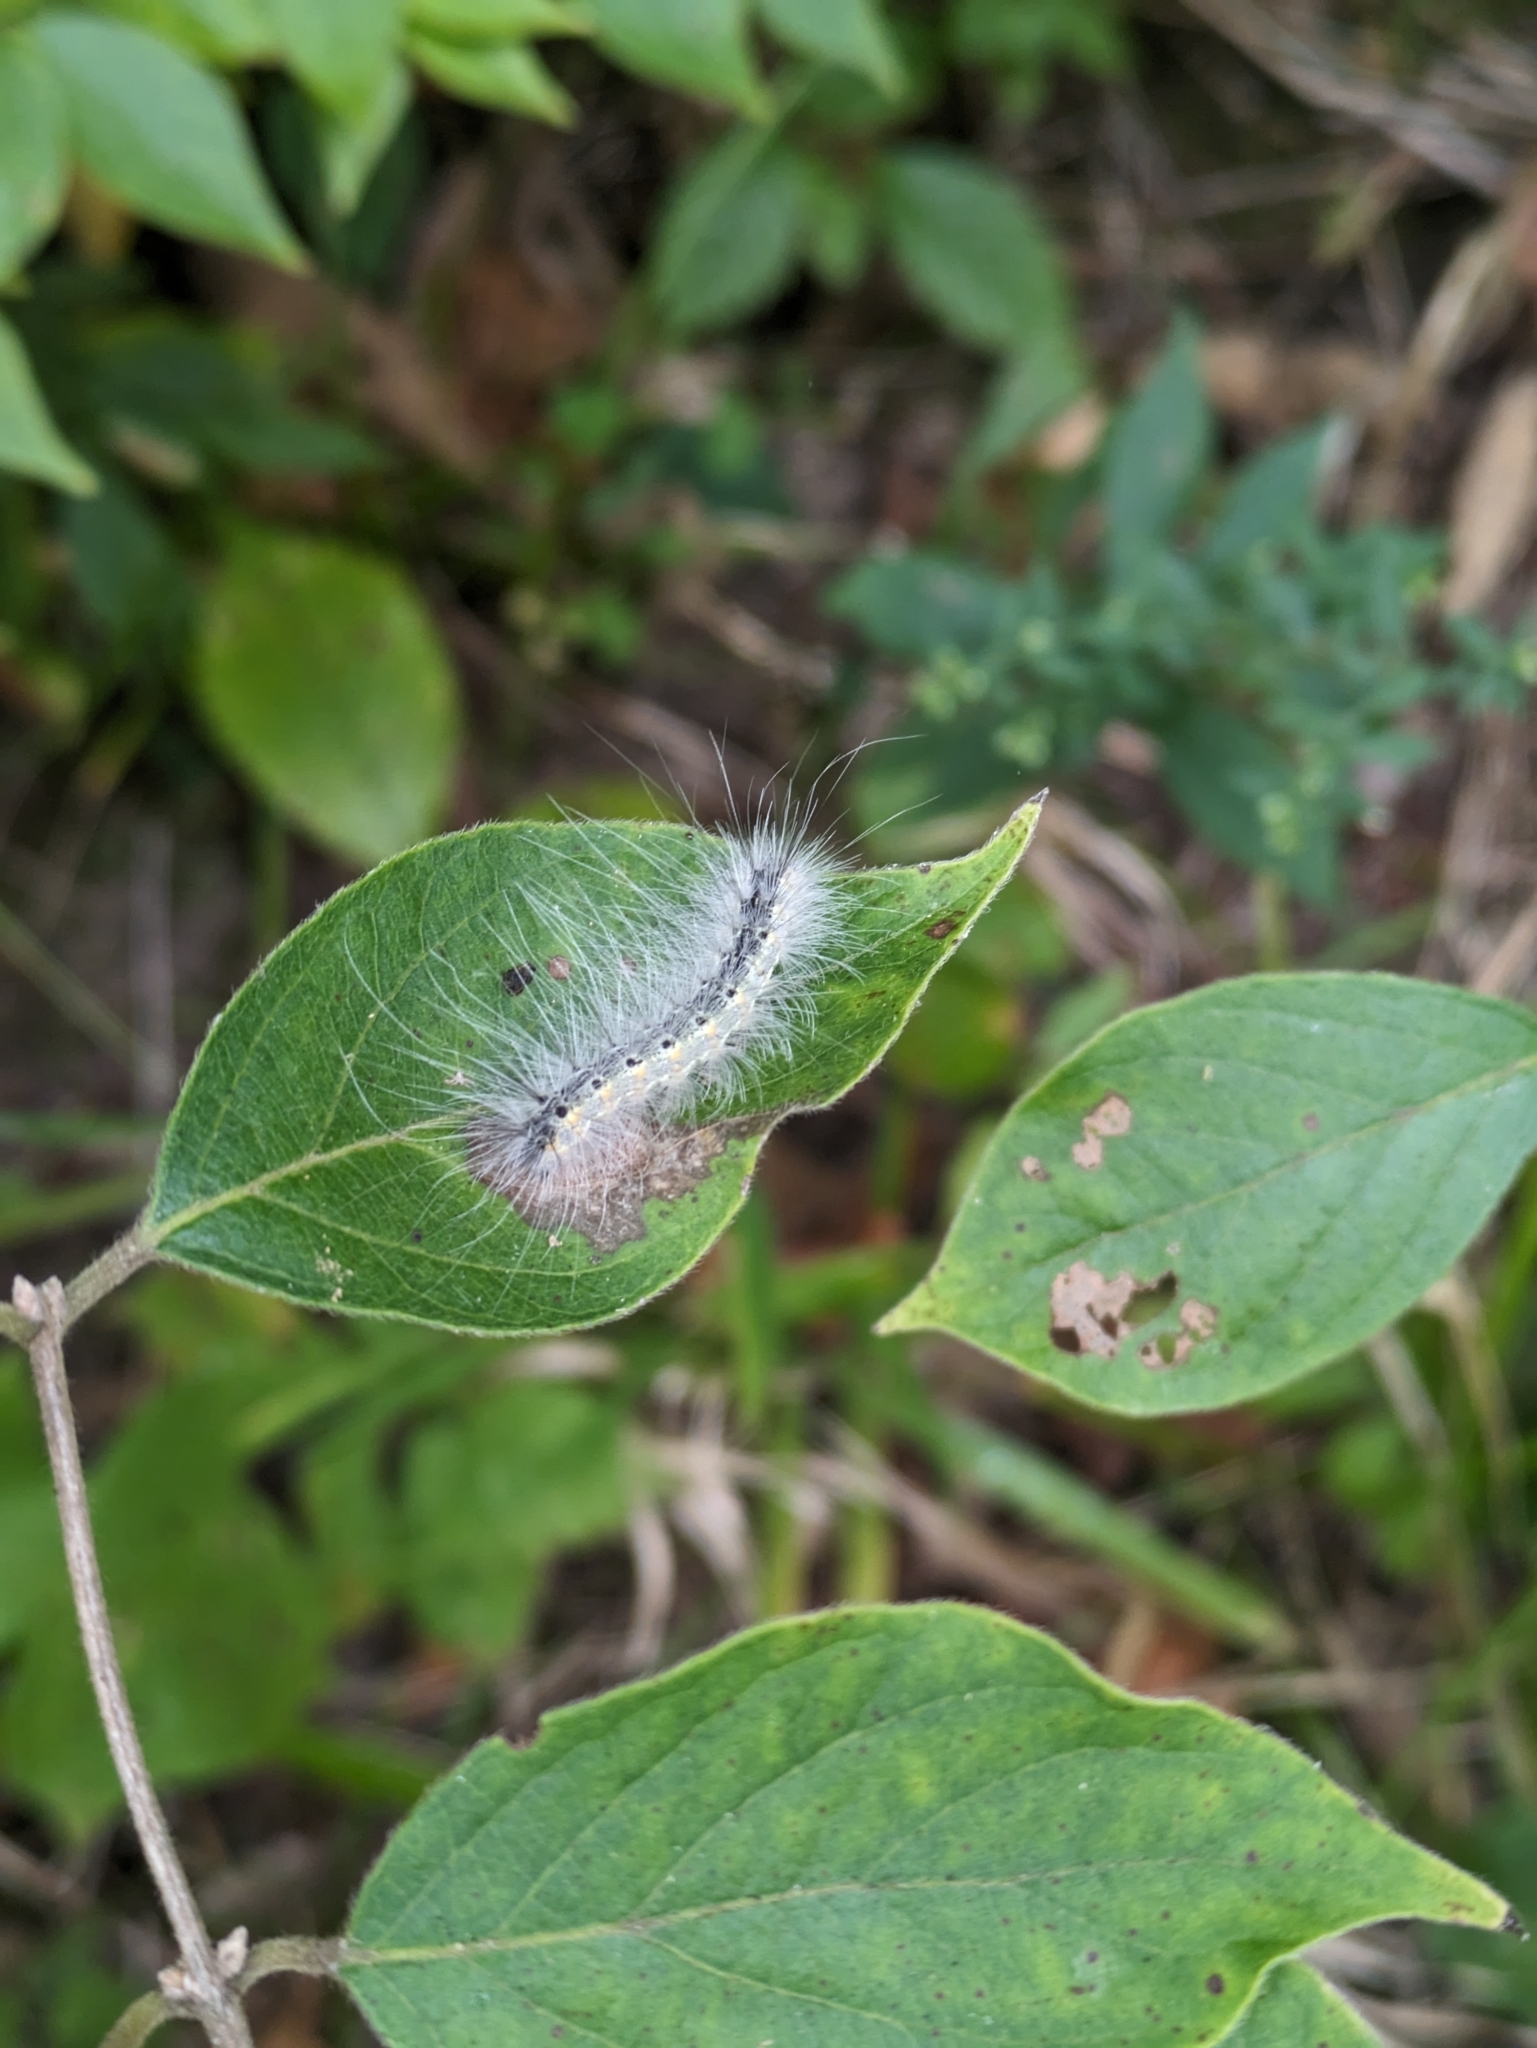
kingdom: Animalia
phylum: Arthropoda
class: Insecta
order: Lepidoptera
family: Erebidae
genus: Hyphantria
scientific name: Hyphantria cunea
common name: American white moth
